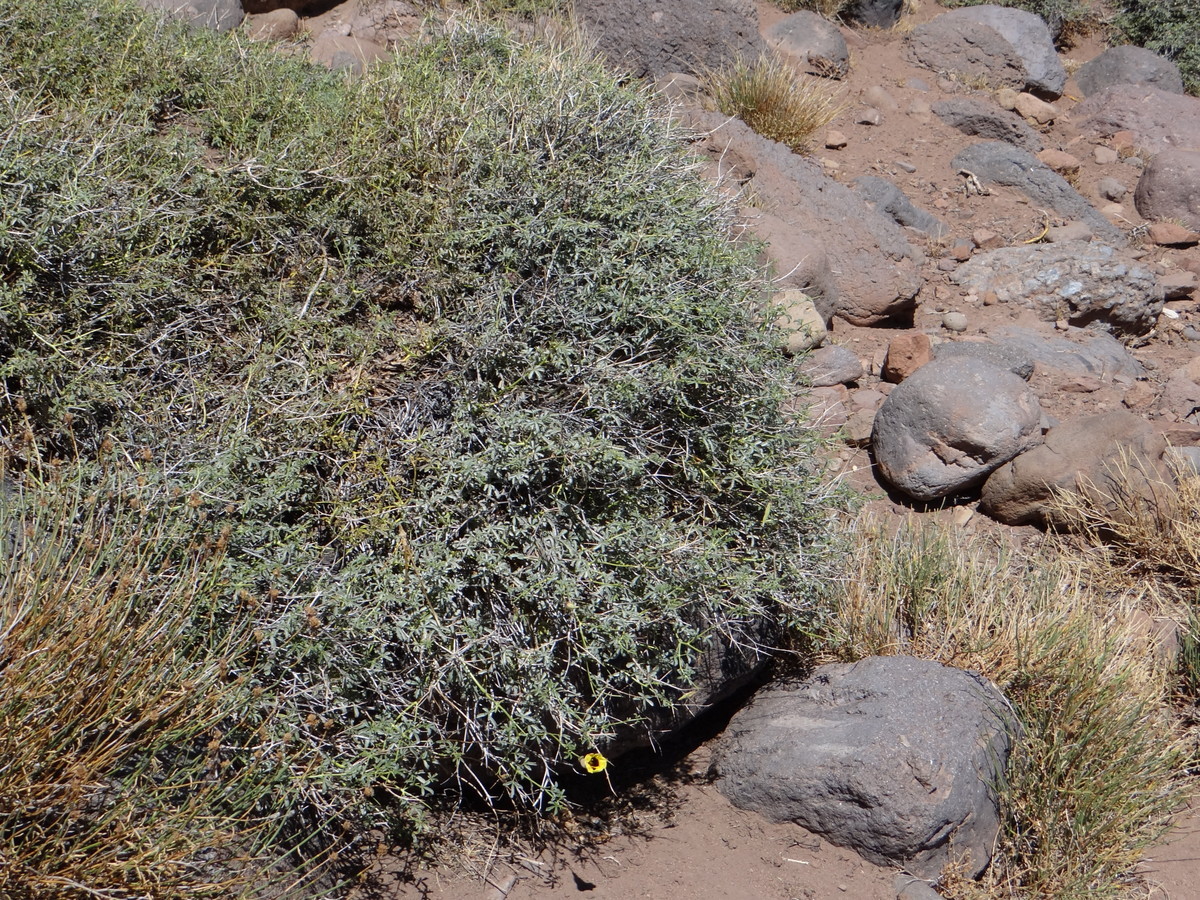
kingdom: Plantae
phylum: Tracheophyta
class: Magnoliopsida
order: Lamiales
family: Bignoniaceae
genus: Argylia
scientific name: Argylia bustillosii
